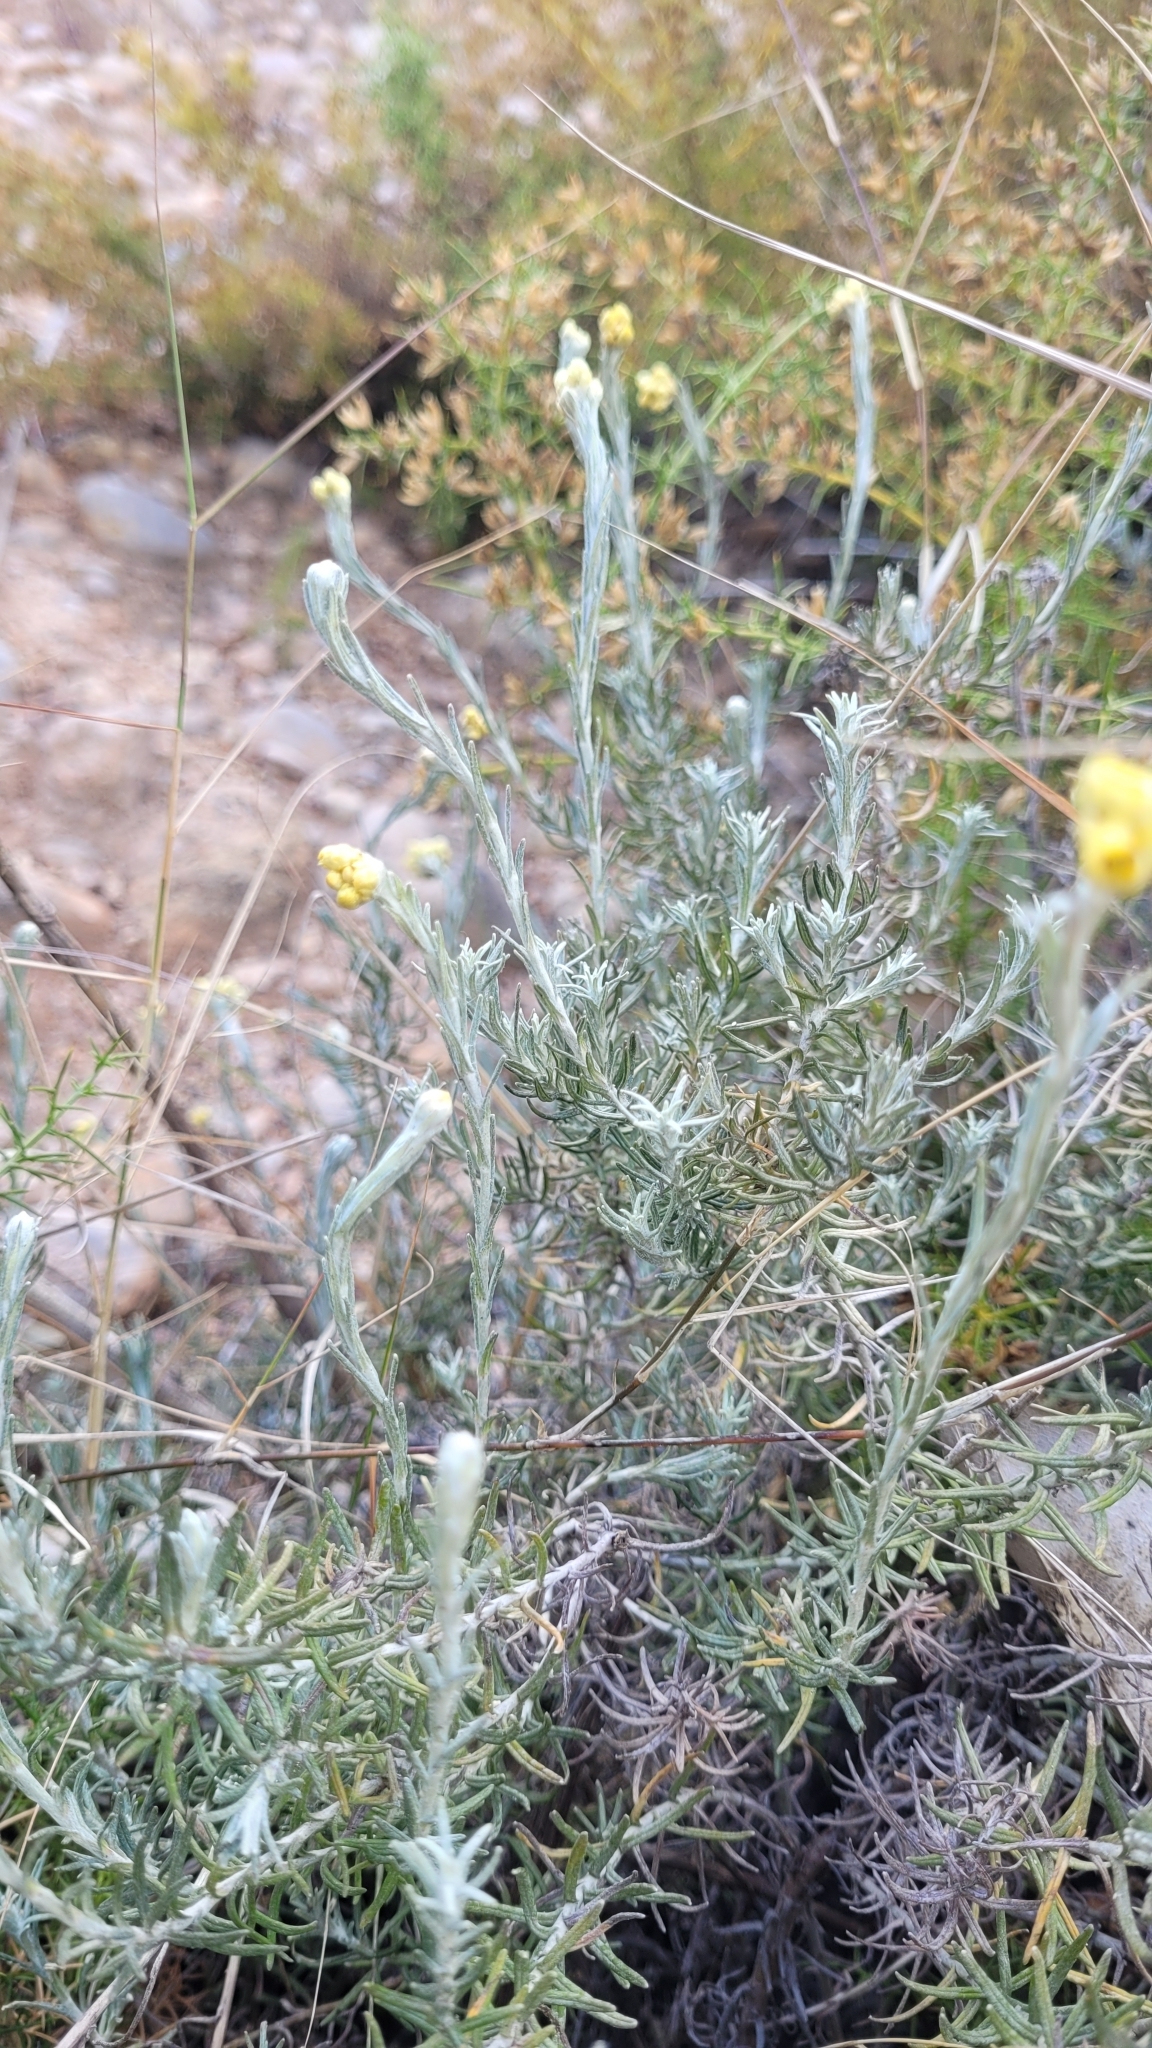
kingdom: Plantae
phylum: Tracheophyta
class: Magnoliopsida
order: Asterales
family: Asteraceae
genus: Helichrysum
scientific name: Helichrysum serotinum
